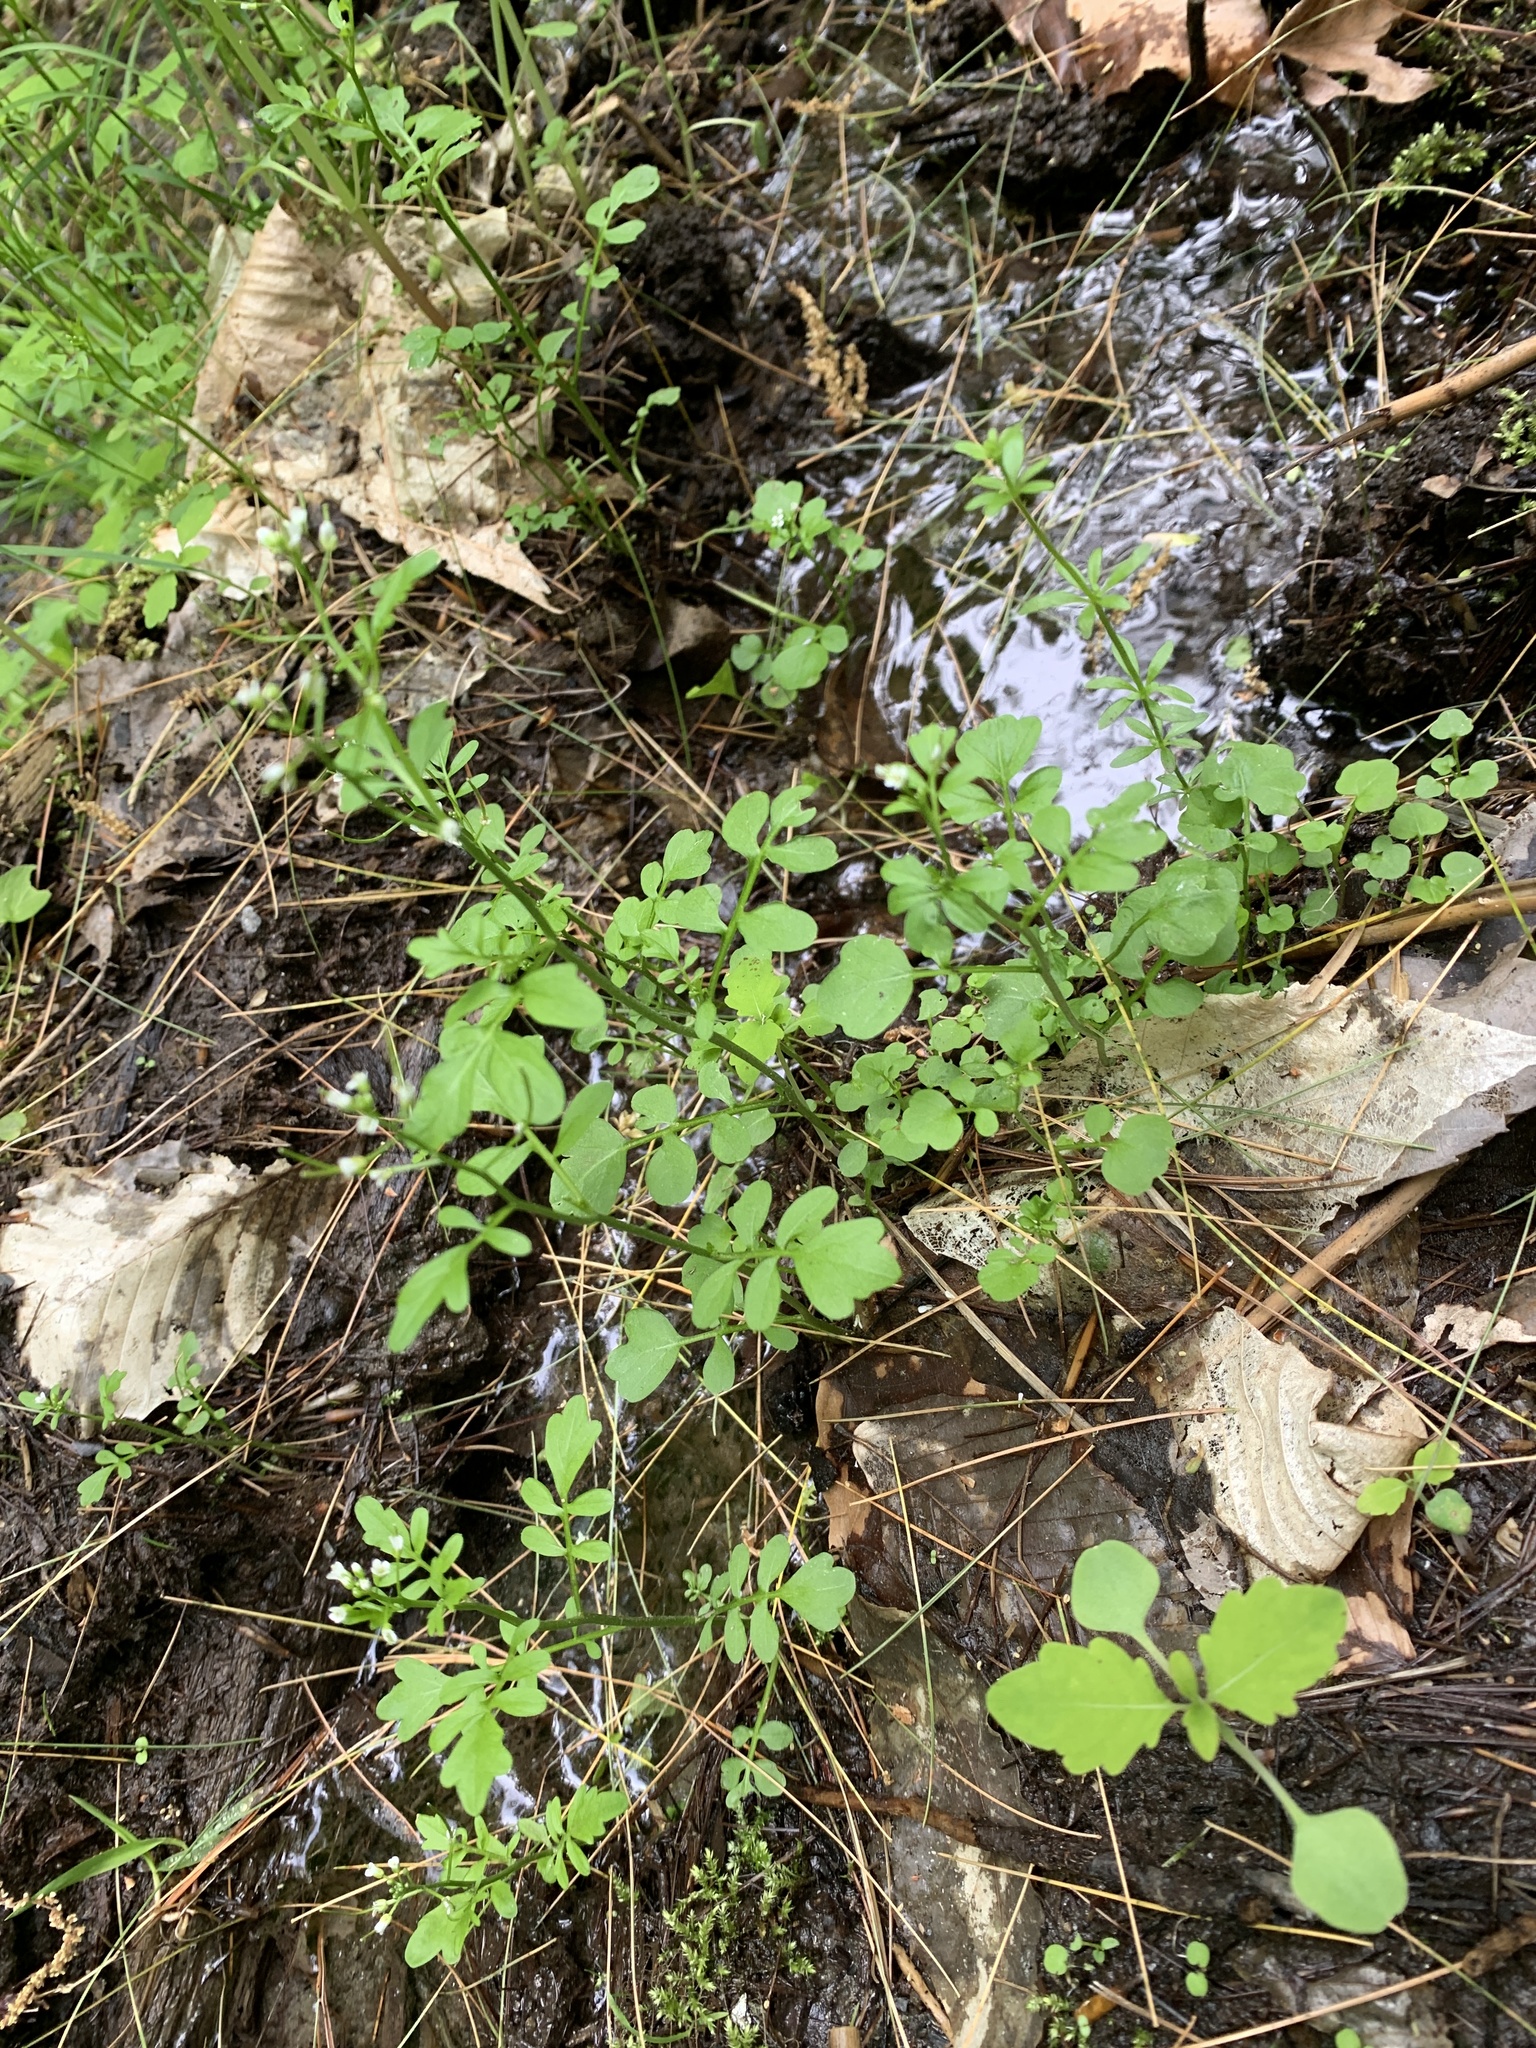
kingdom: Plantae
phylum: Tracheophyta
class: Magnoliopsida
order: Brassicales
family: Brassicaceae
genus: Cardamine
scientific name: Cardamine pensylvanica
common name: Pennsylvania bittercress
